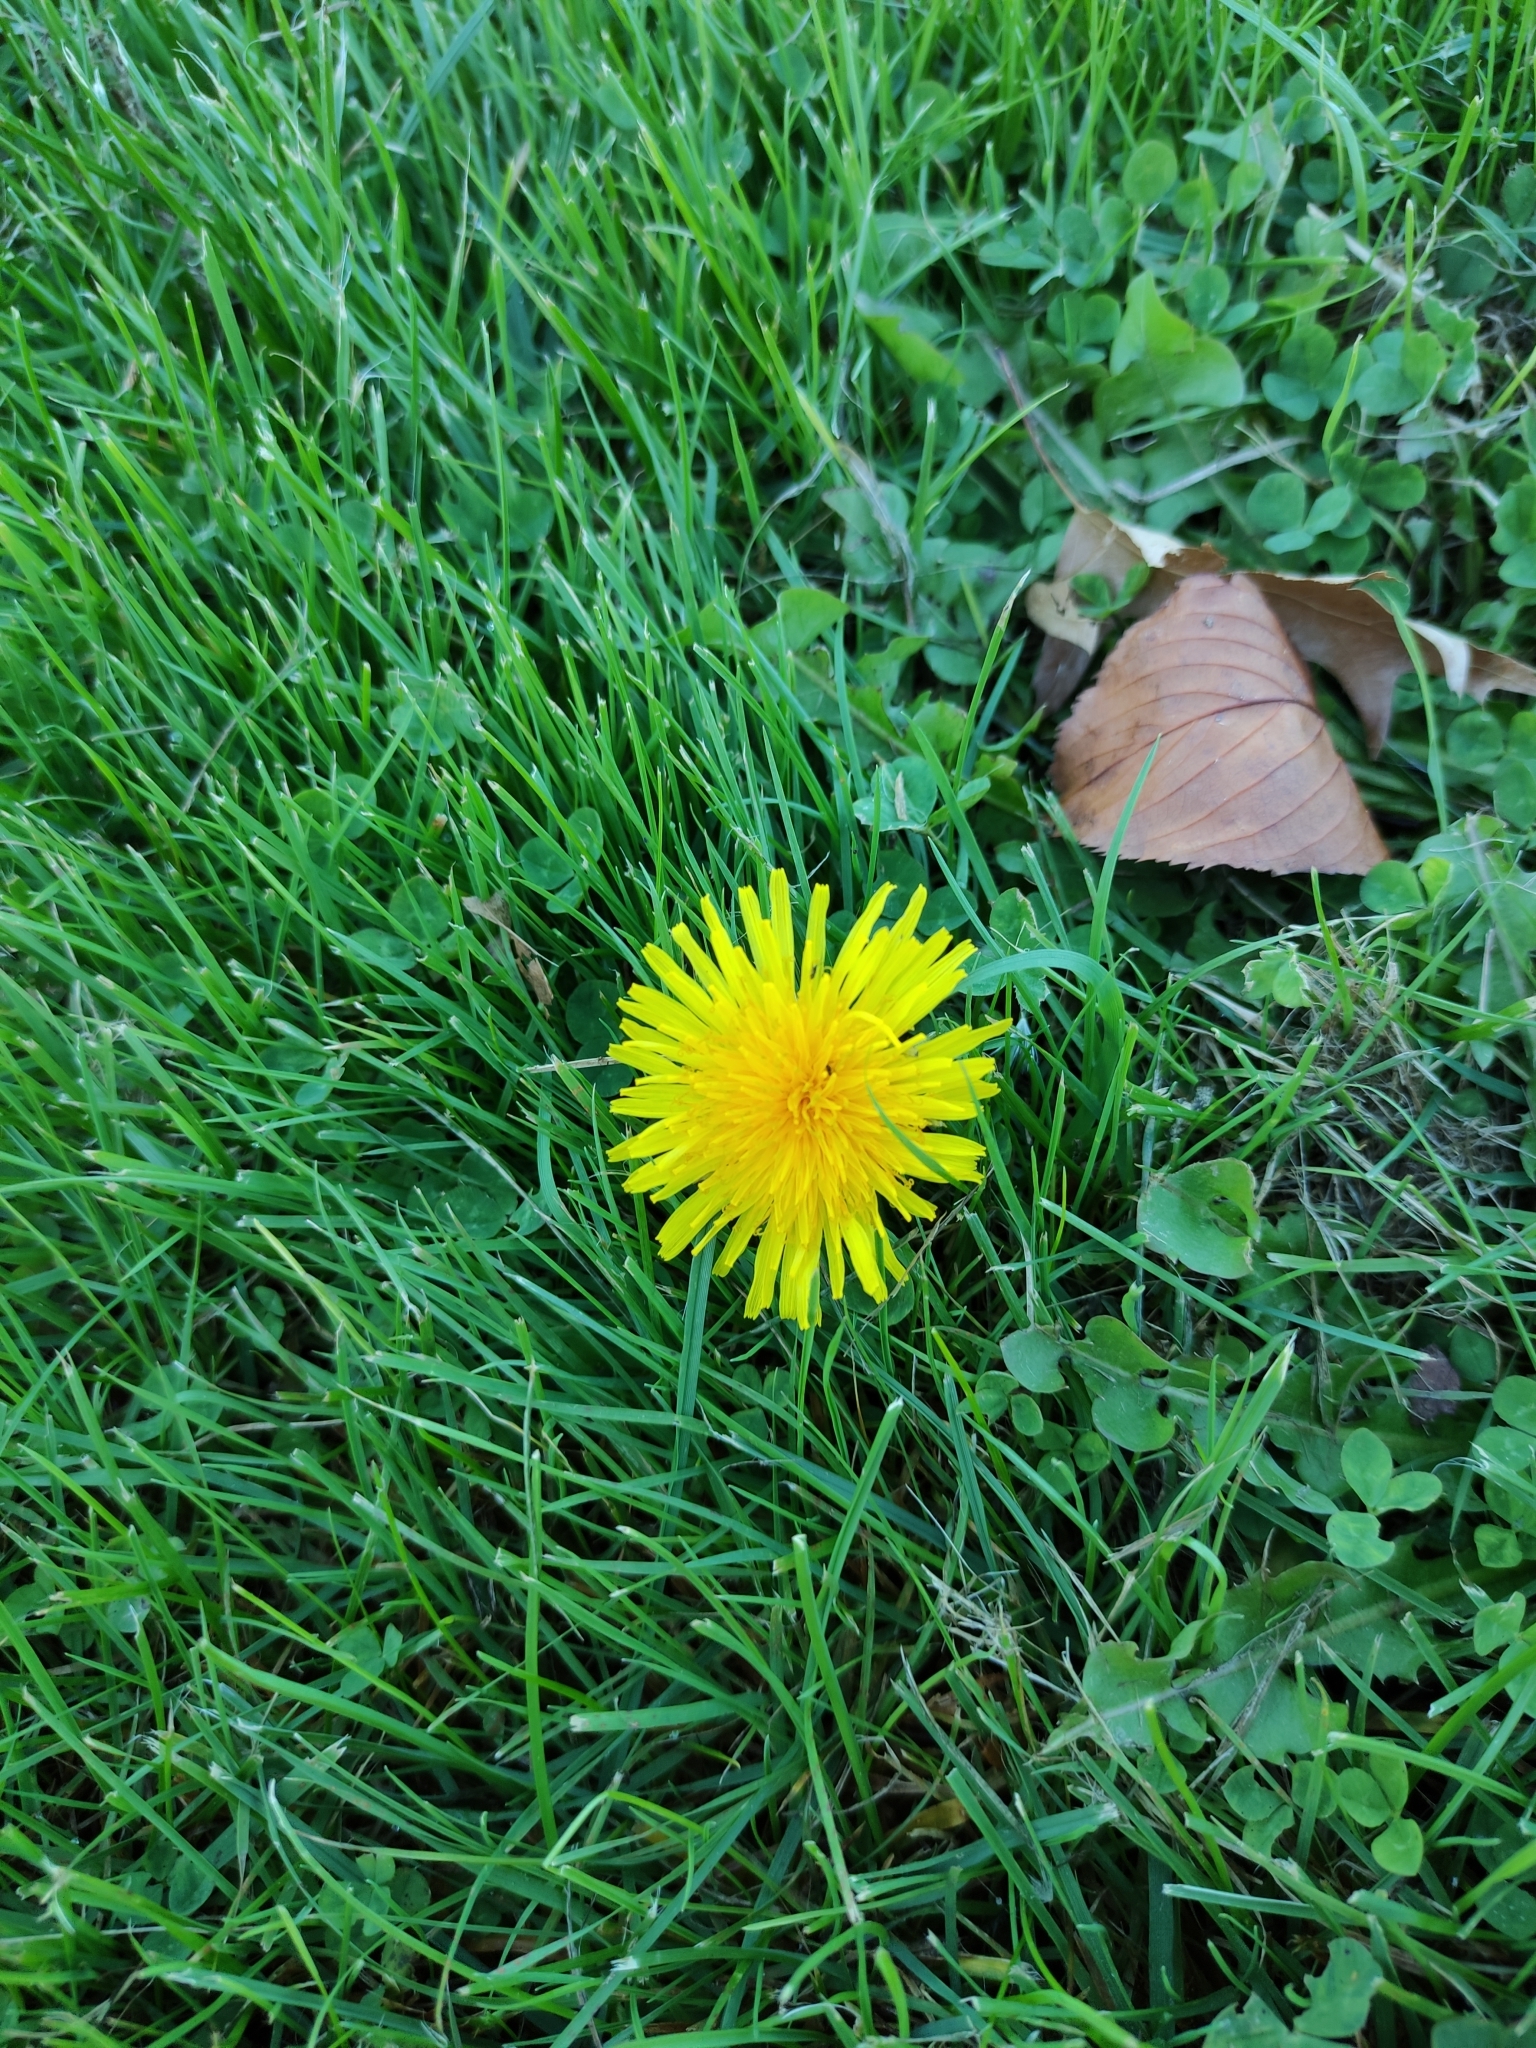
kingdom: Plantae
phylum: Tracheophyta
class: Magnoliopsida
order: Asterales
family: Asteraceae
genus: Taraxacum
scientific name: Taraxacum officinale
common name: Common dandelion
